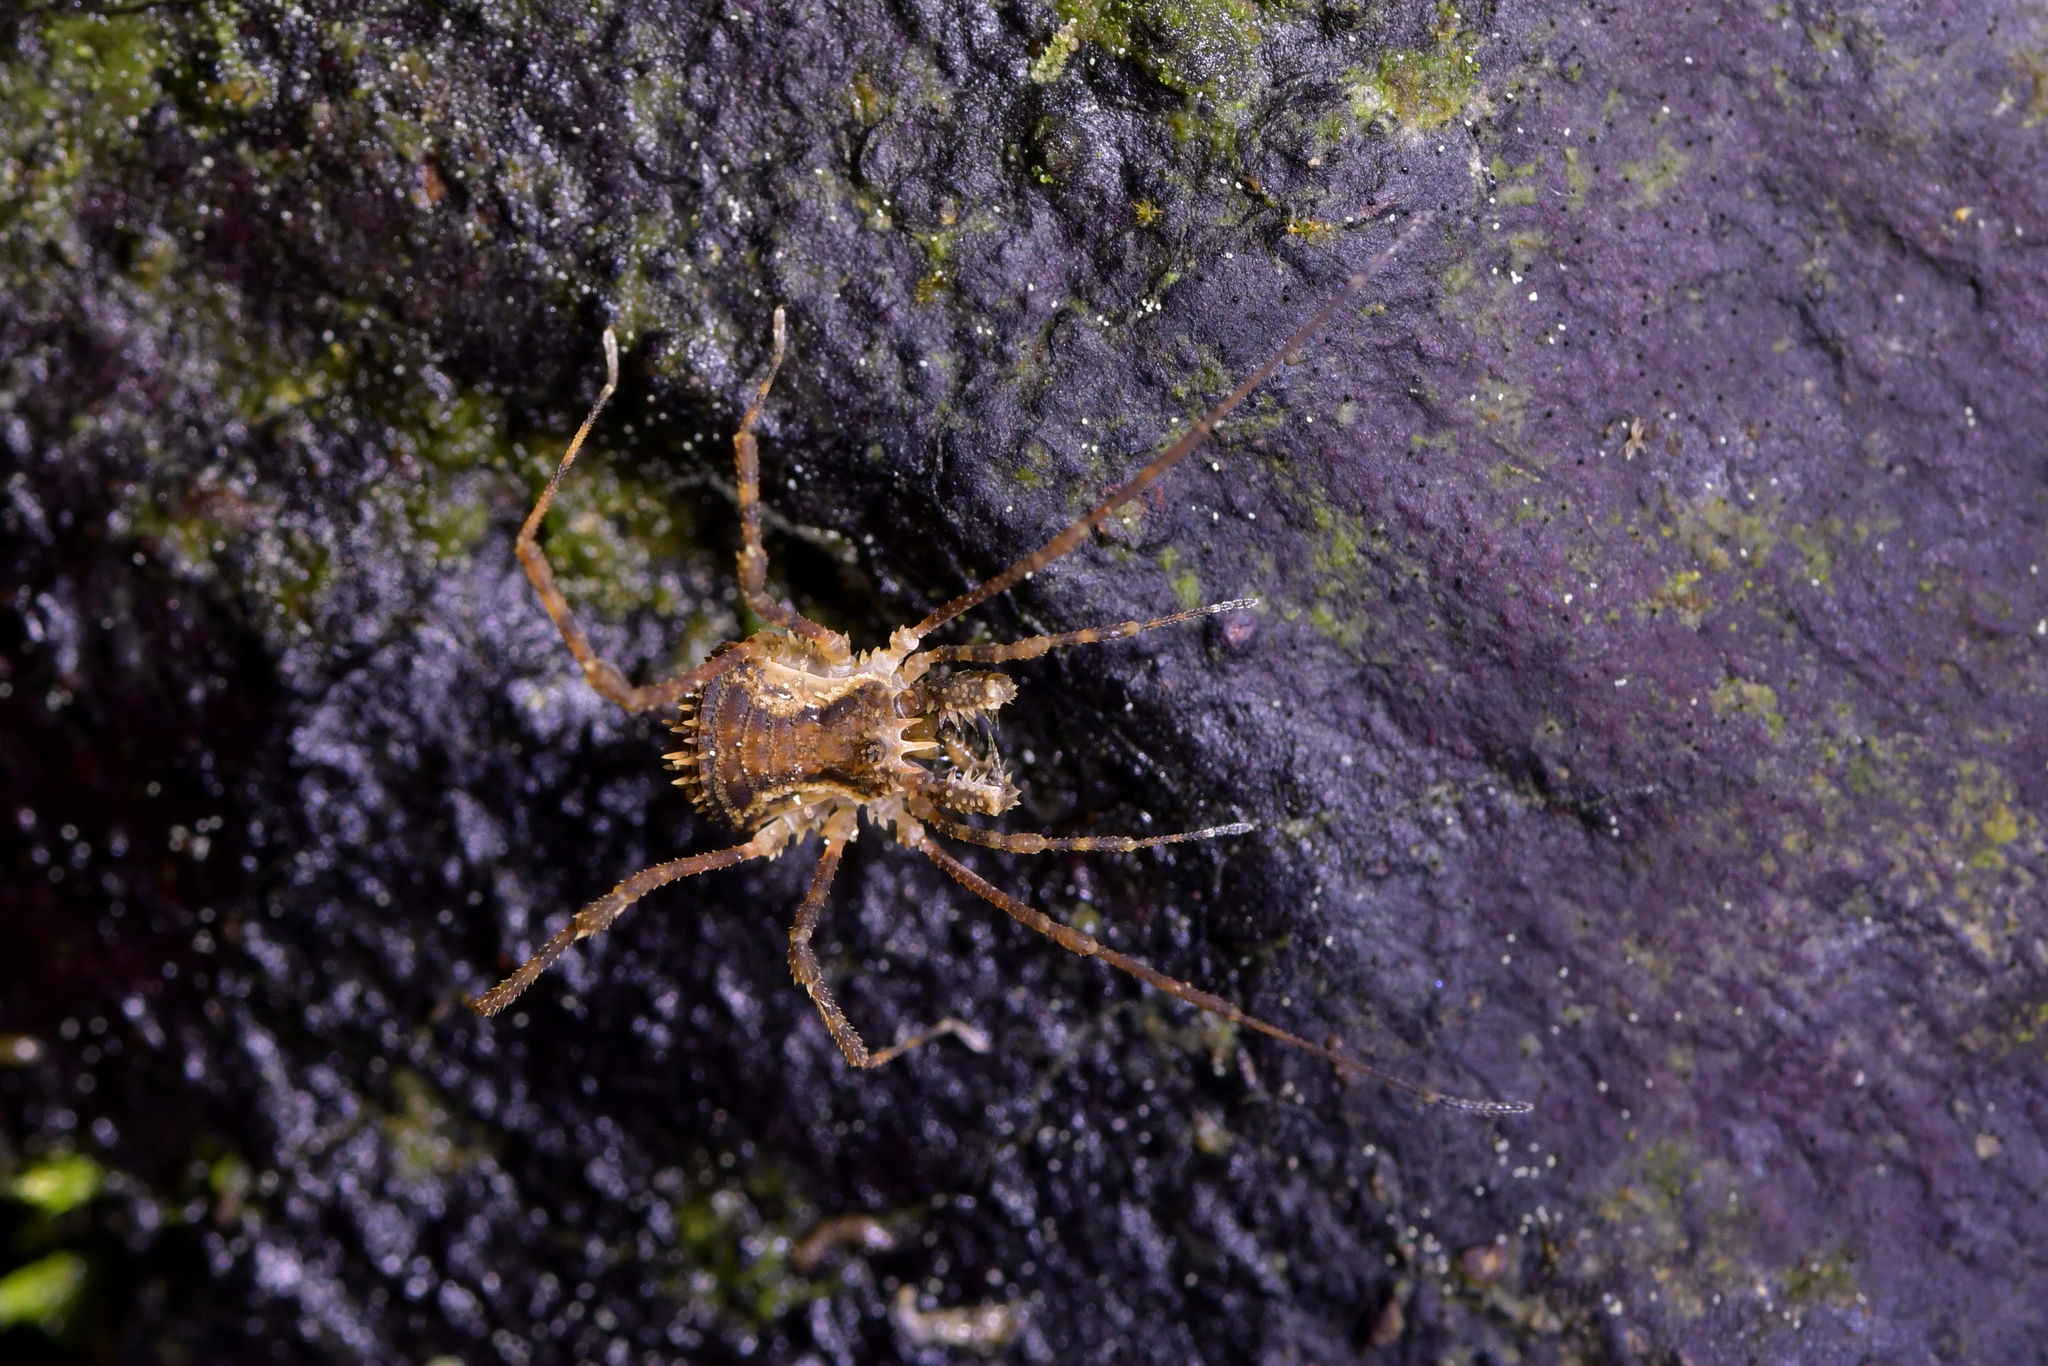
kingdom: Animalia
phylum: Arthropoda
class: Arachnida
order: Opiliones
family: Triaenonychidae
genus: Algidia
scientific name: Algidia chiltoni
